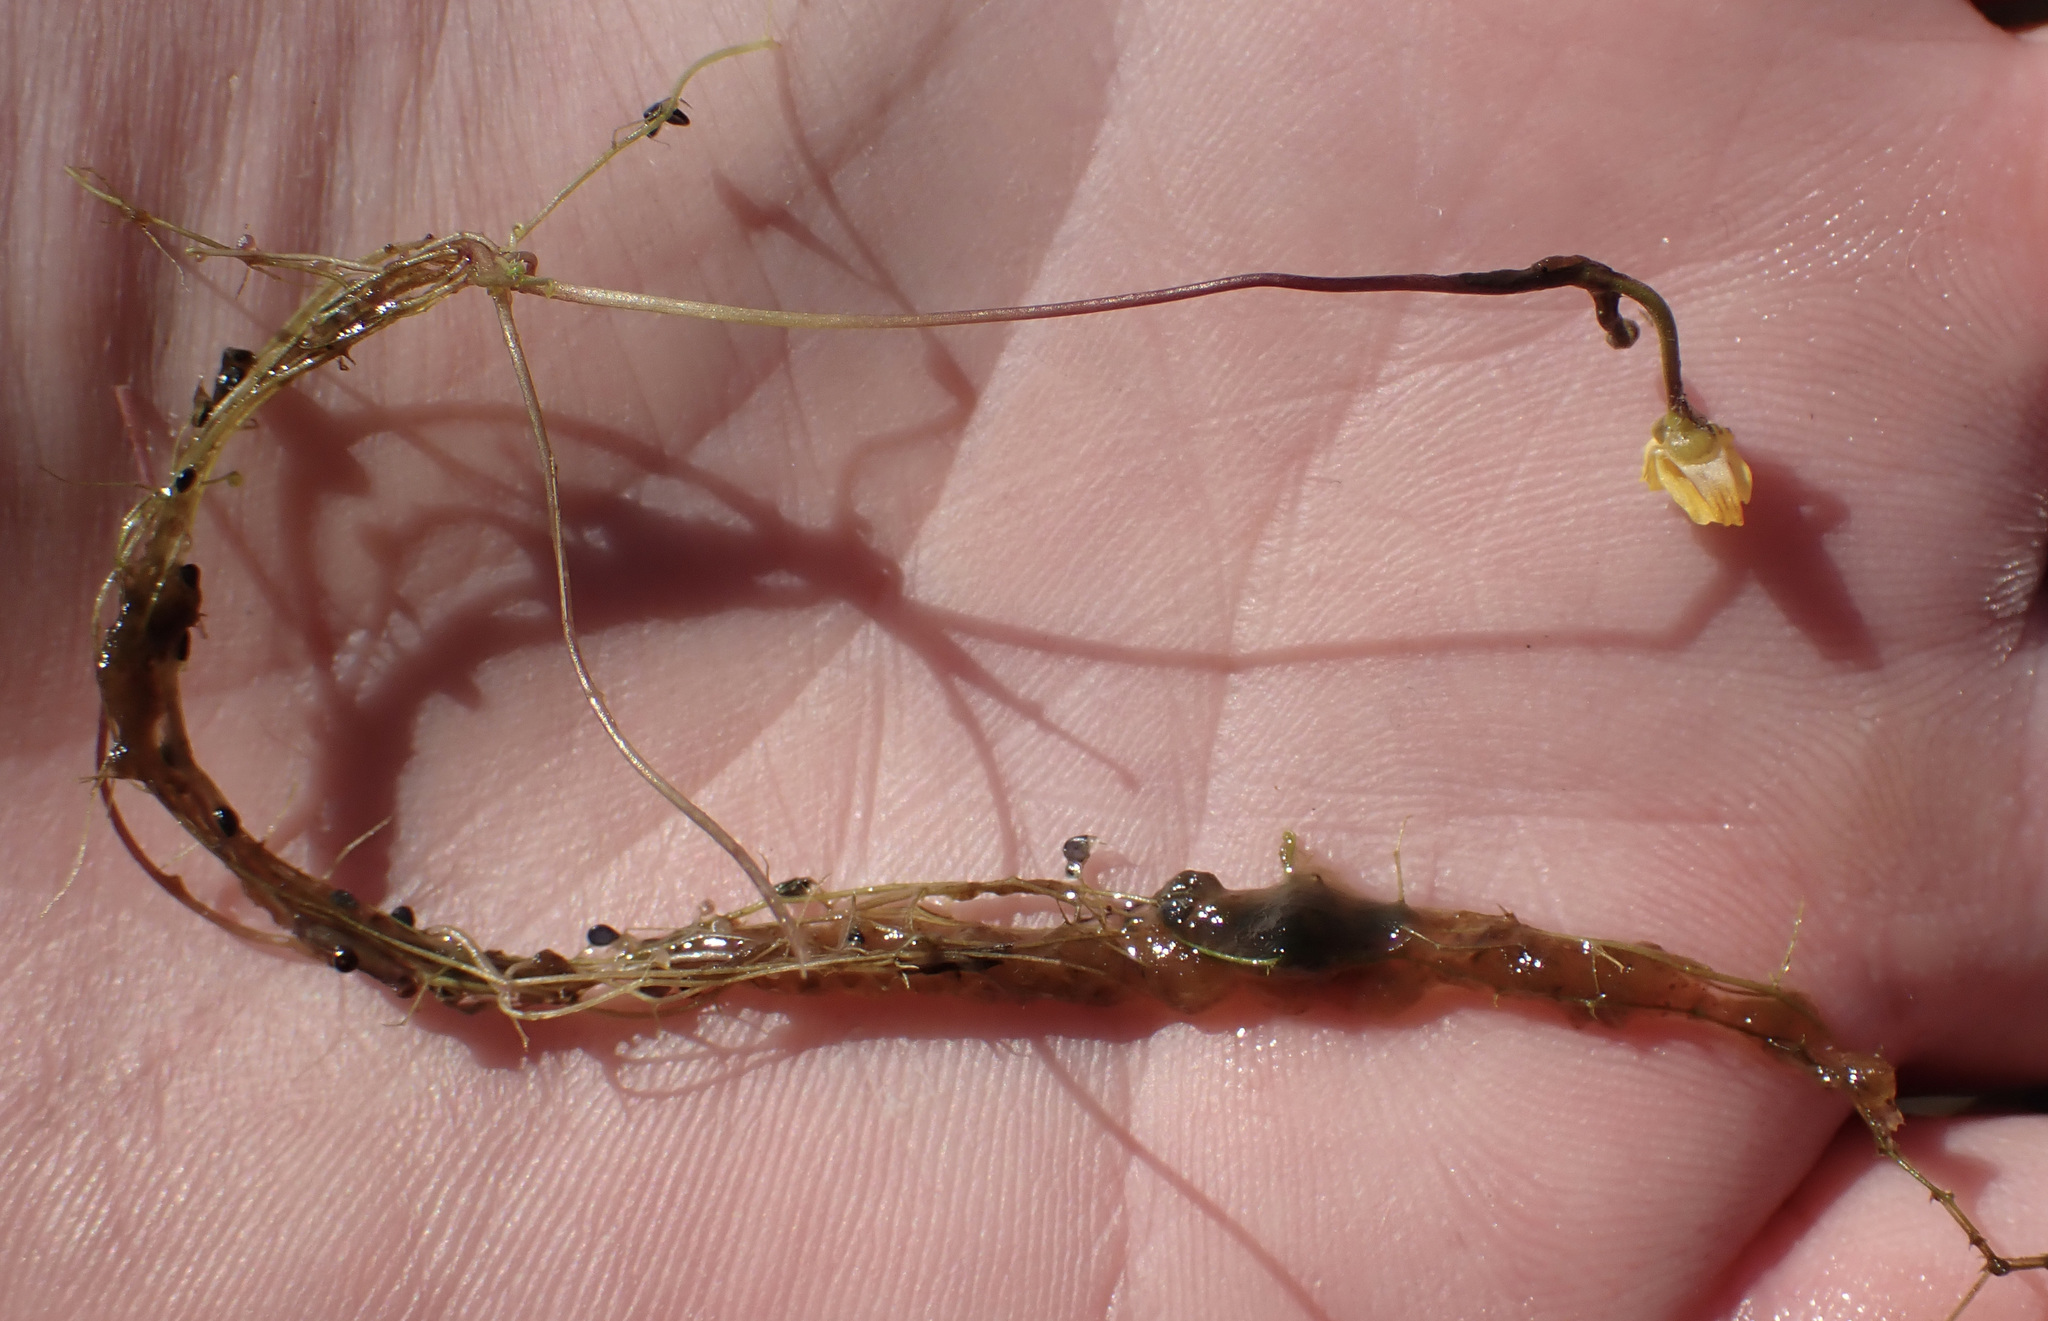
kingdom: Plantae
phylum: Tracheophyta
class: Magnoliopsida
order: Lamiales
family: Lentibulariaceae
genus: Utricularia
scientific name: Utricularia gibba
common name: Humped bladderwort
